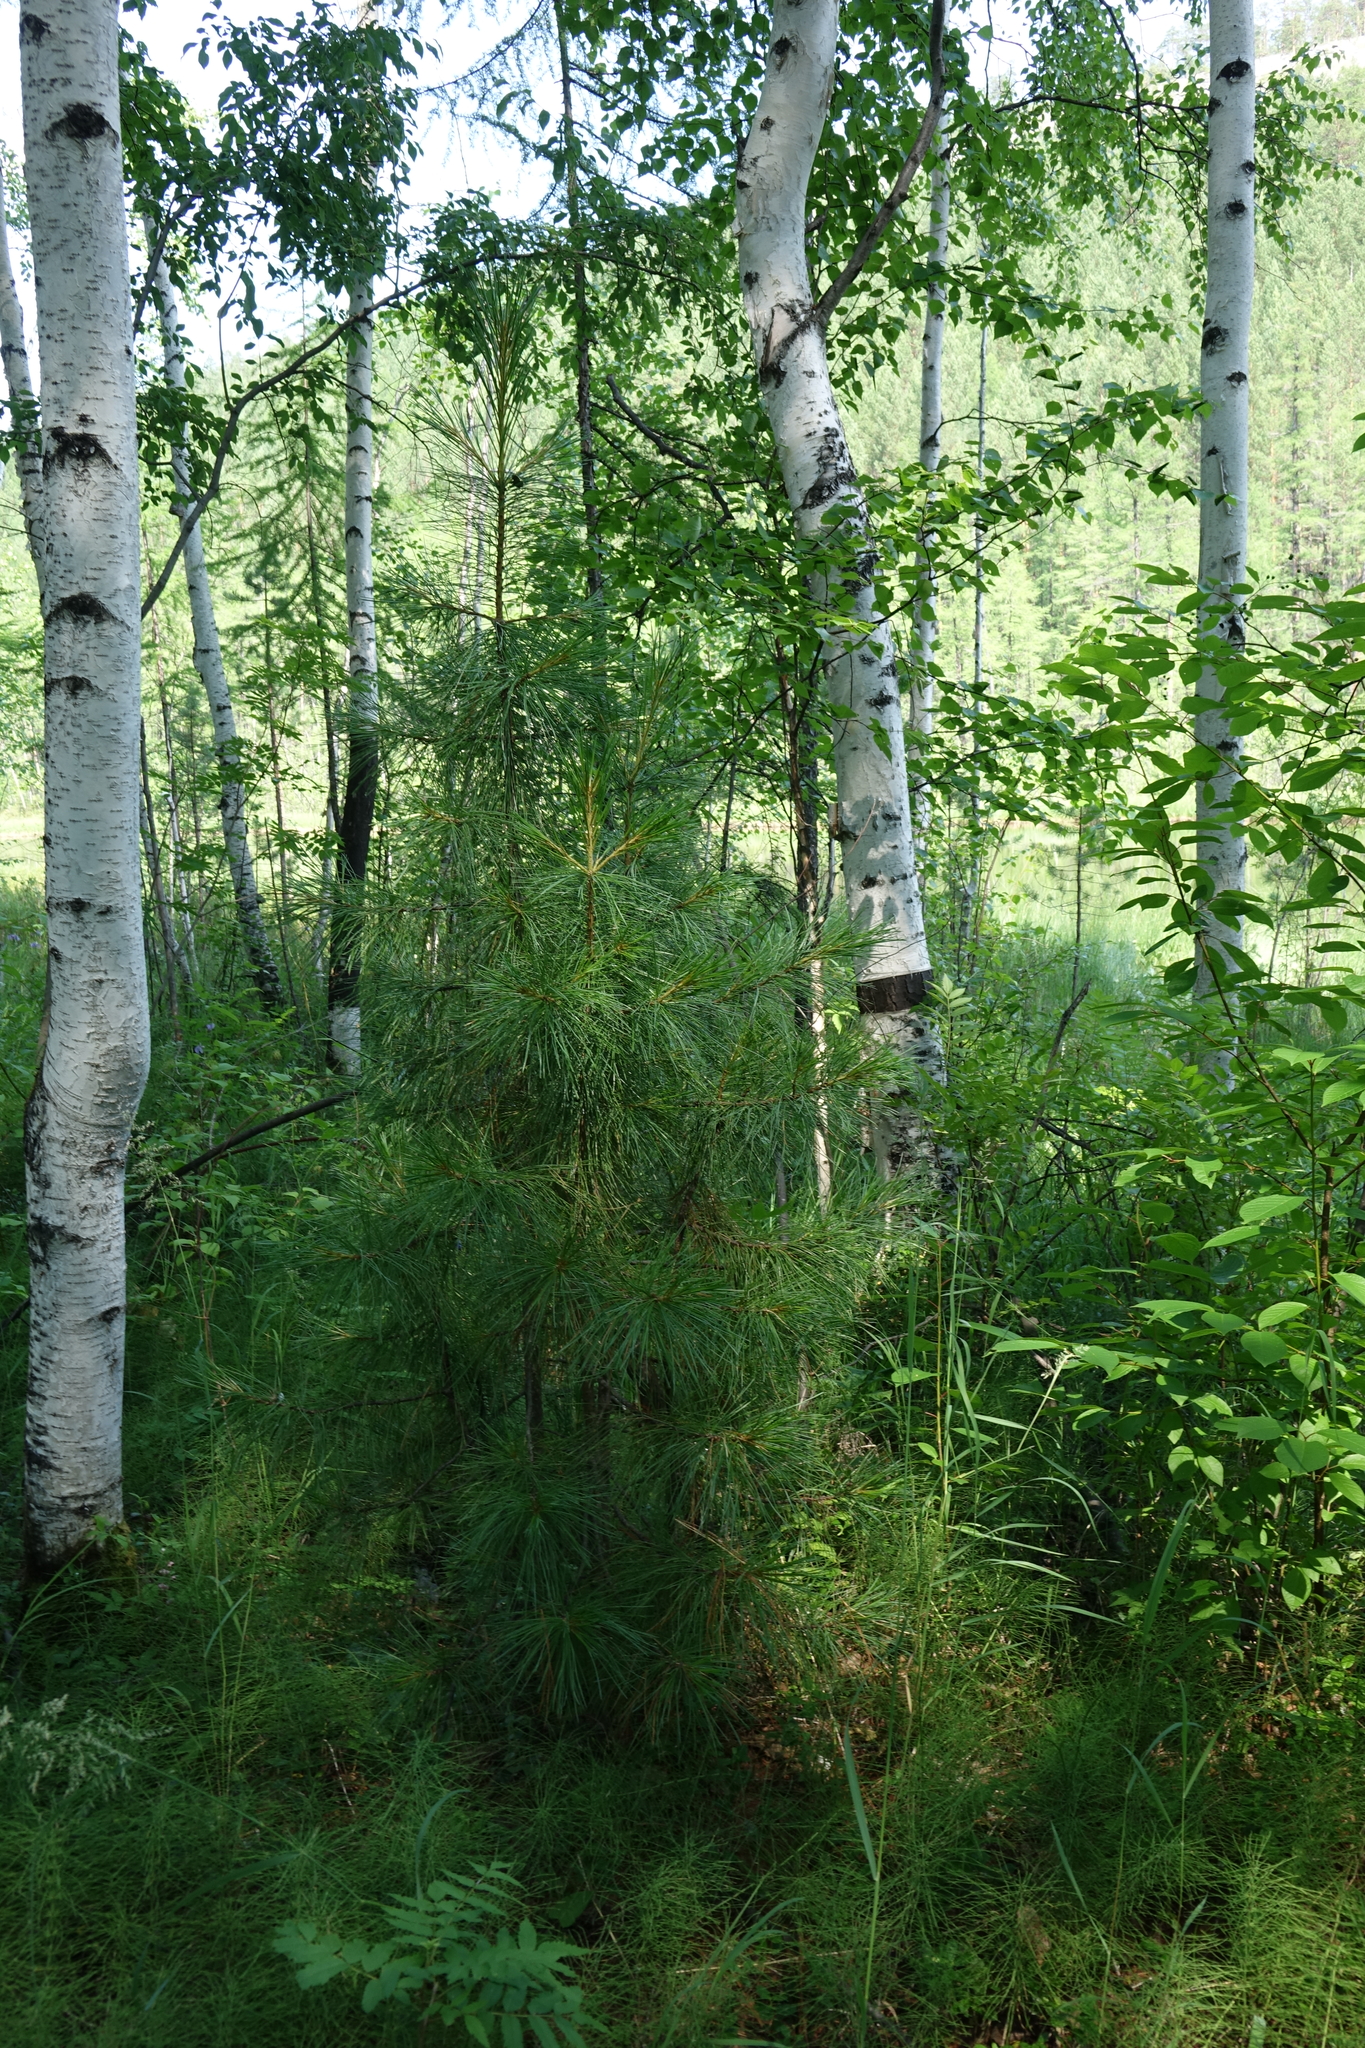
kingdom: Plantae
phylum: Tracheophyta
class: Pinopsida
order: Pinales
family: Pinaceae
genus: Pinus
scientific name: Pinus sibirica
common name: Siberian pine
